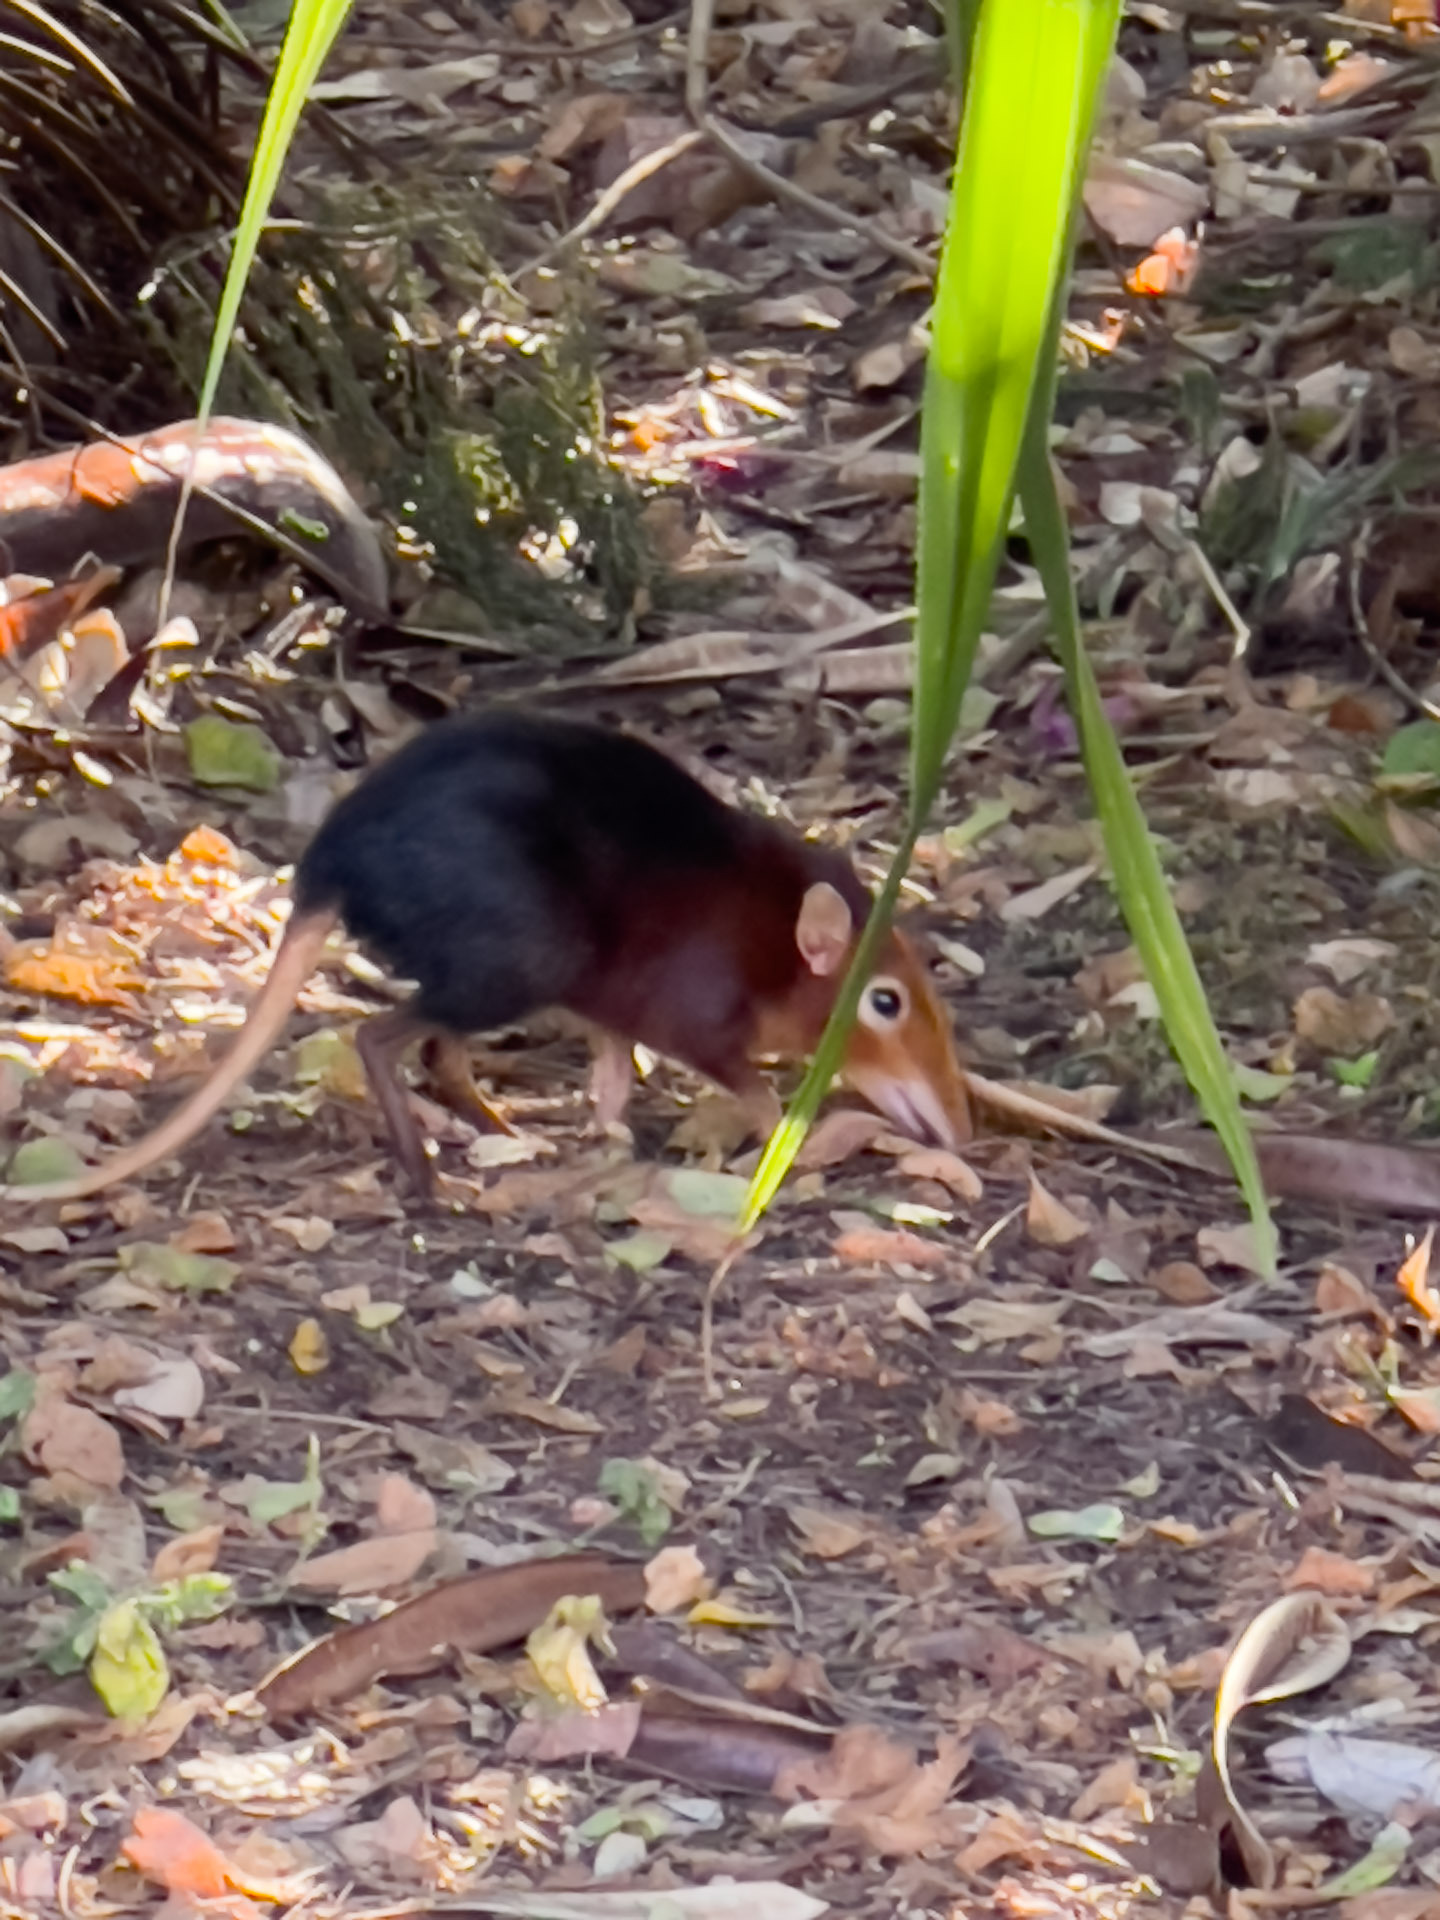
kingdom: Animalia
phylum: Chordata
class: Mammalia
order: Macroscelidea
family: Macroscelididae
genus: Rhynchocyon
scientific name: Rhynchocyon petersi
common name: Black and rufous elephant shrew/sengi
